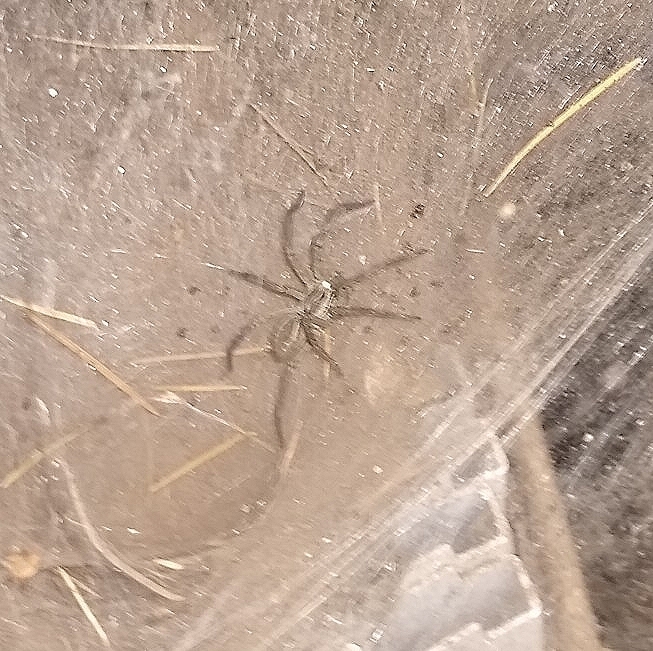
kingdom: Animalia
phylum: Arthropoda
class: Arachnida
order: Araneae
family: Lycosidae
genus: Aglaoctenus
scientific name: Aglaoctenus lagotis
